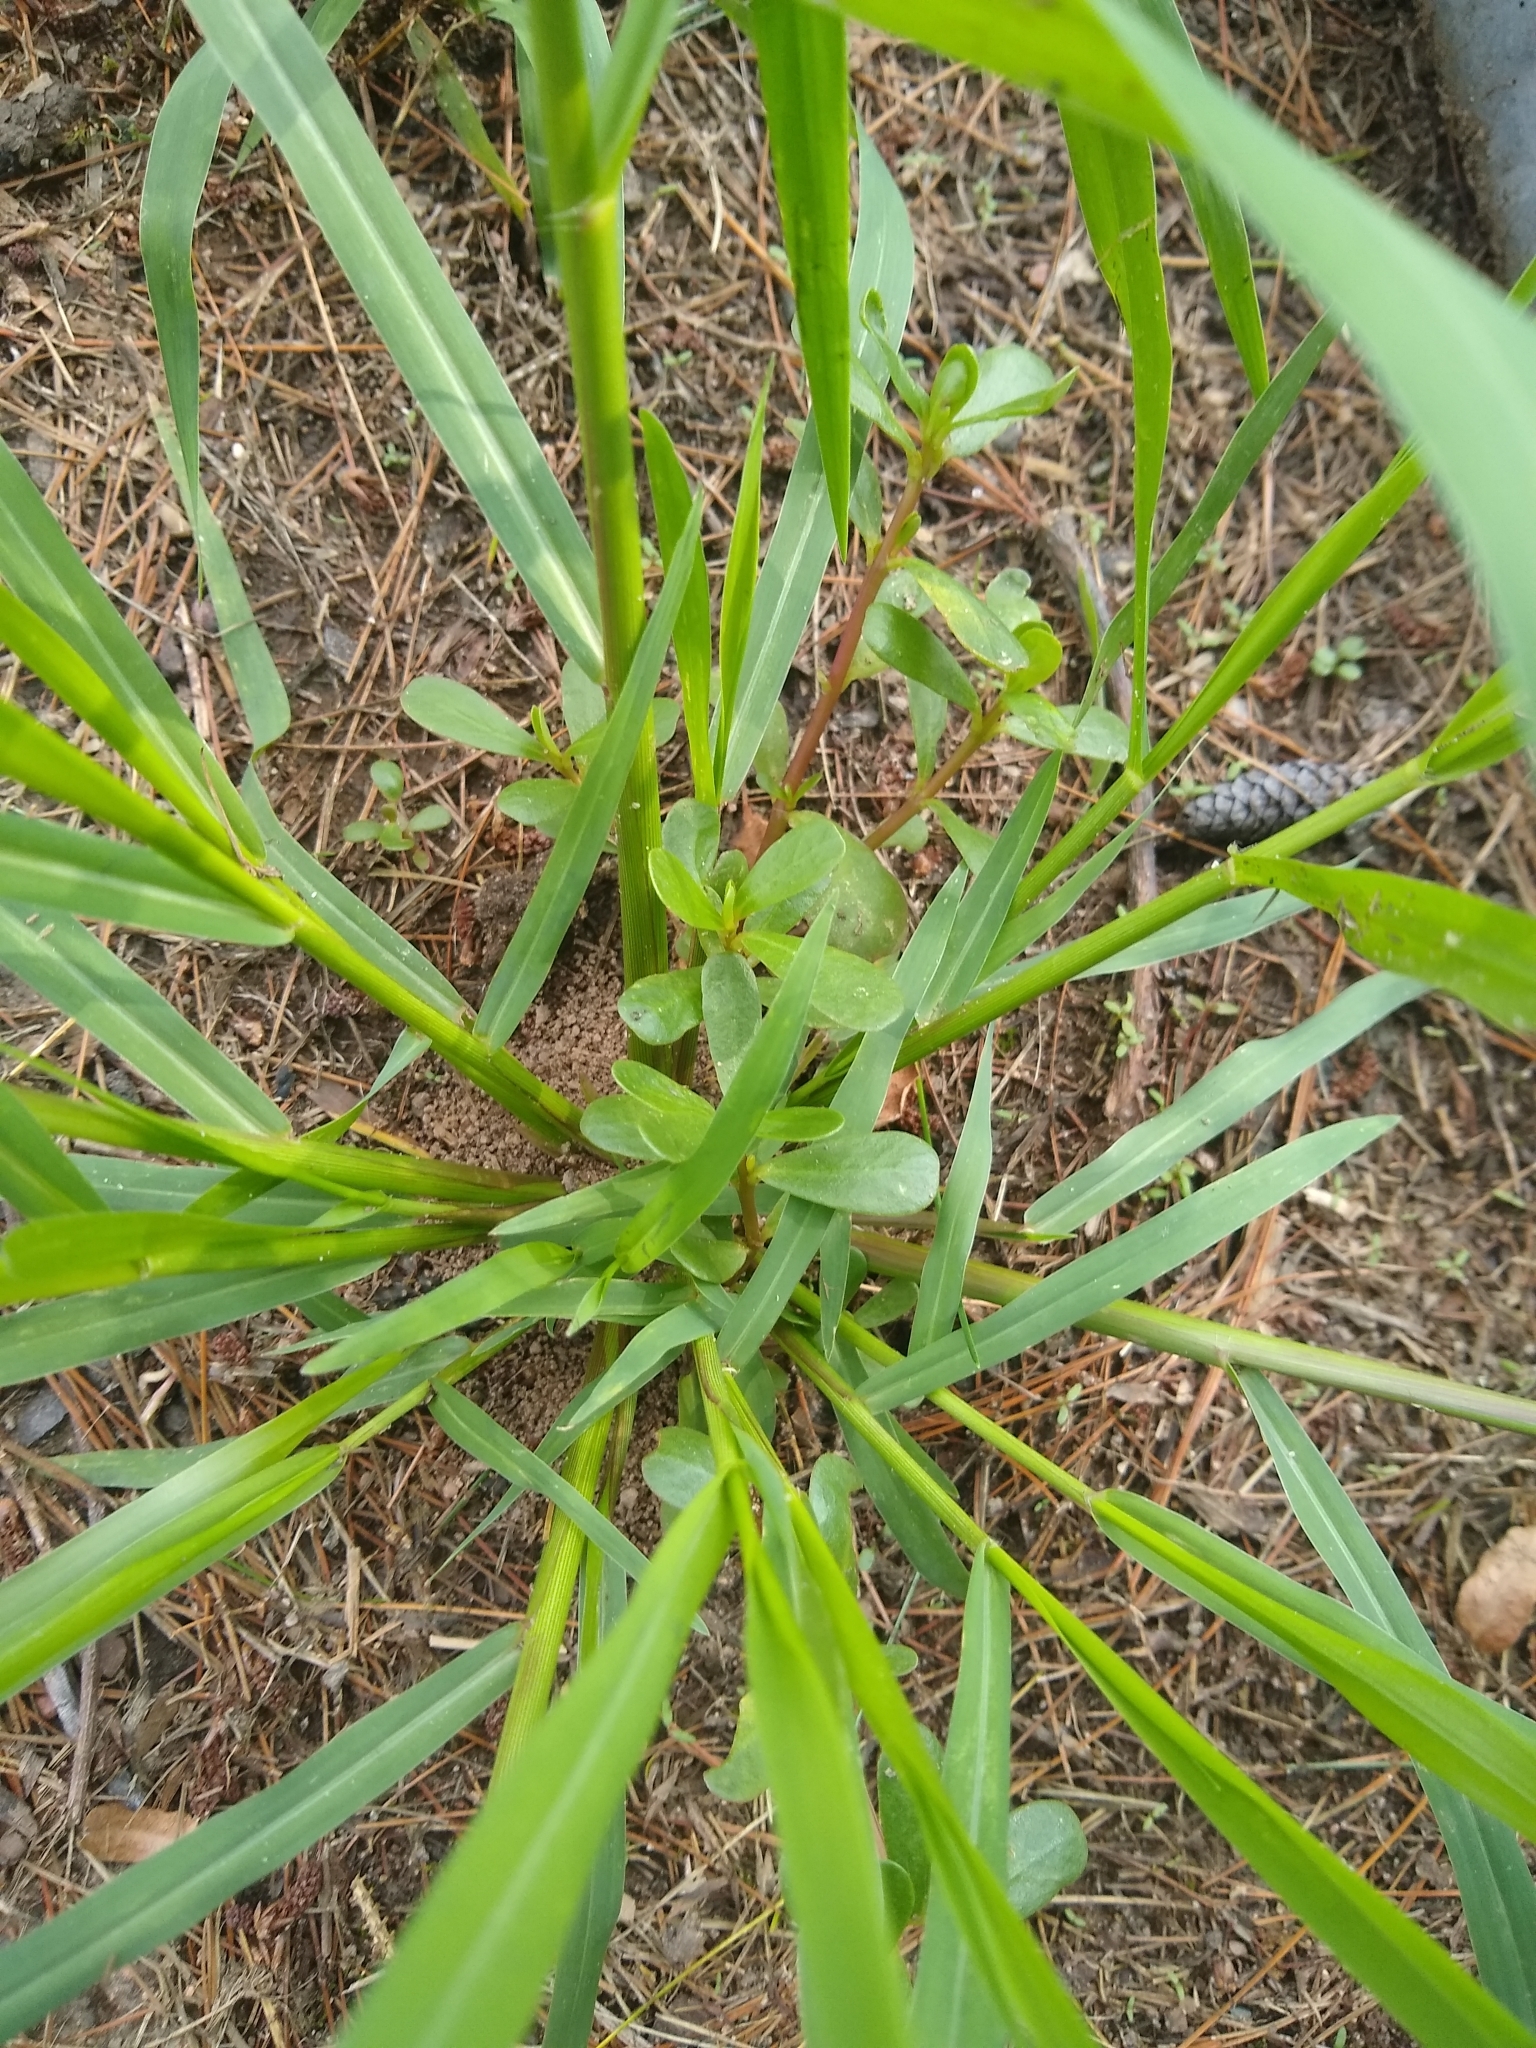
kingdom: Plantae
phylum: Tracheophyta
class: Magnoliopsida
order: Caryophyllales
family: Portulacaceae
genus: Portulaca
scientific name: Portulaca oleracea
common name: Common purslane
